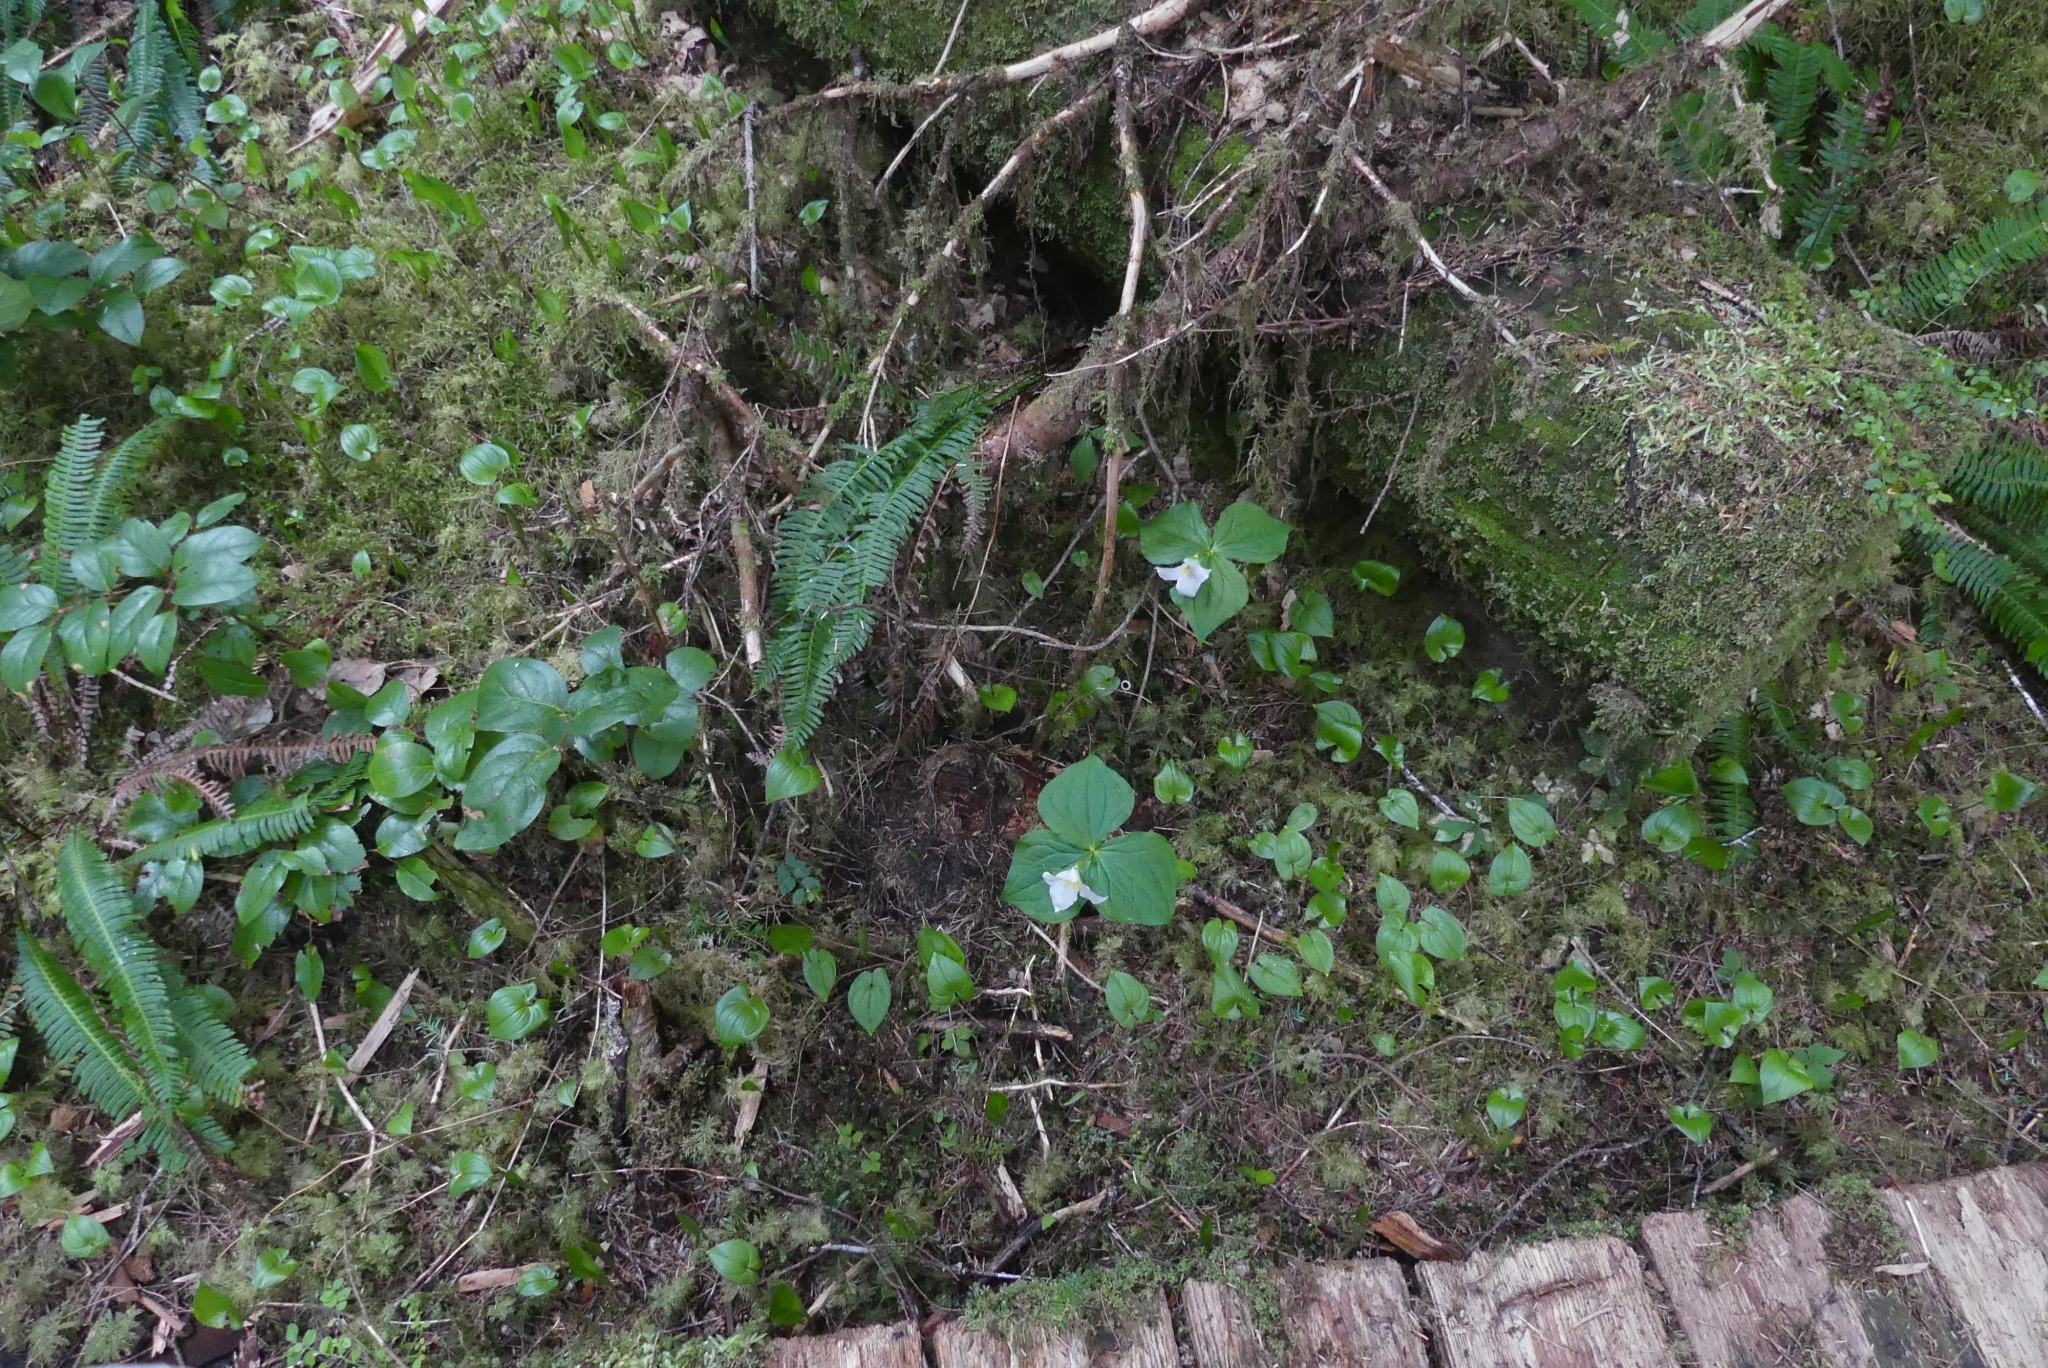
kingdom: Plantae
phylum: Tracheophyta
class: Liliopsida
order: Liliales
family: Melanthiaceae
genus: Trillium
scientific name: Trillium ovatum
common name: Pacific trillium
